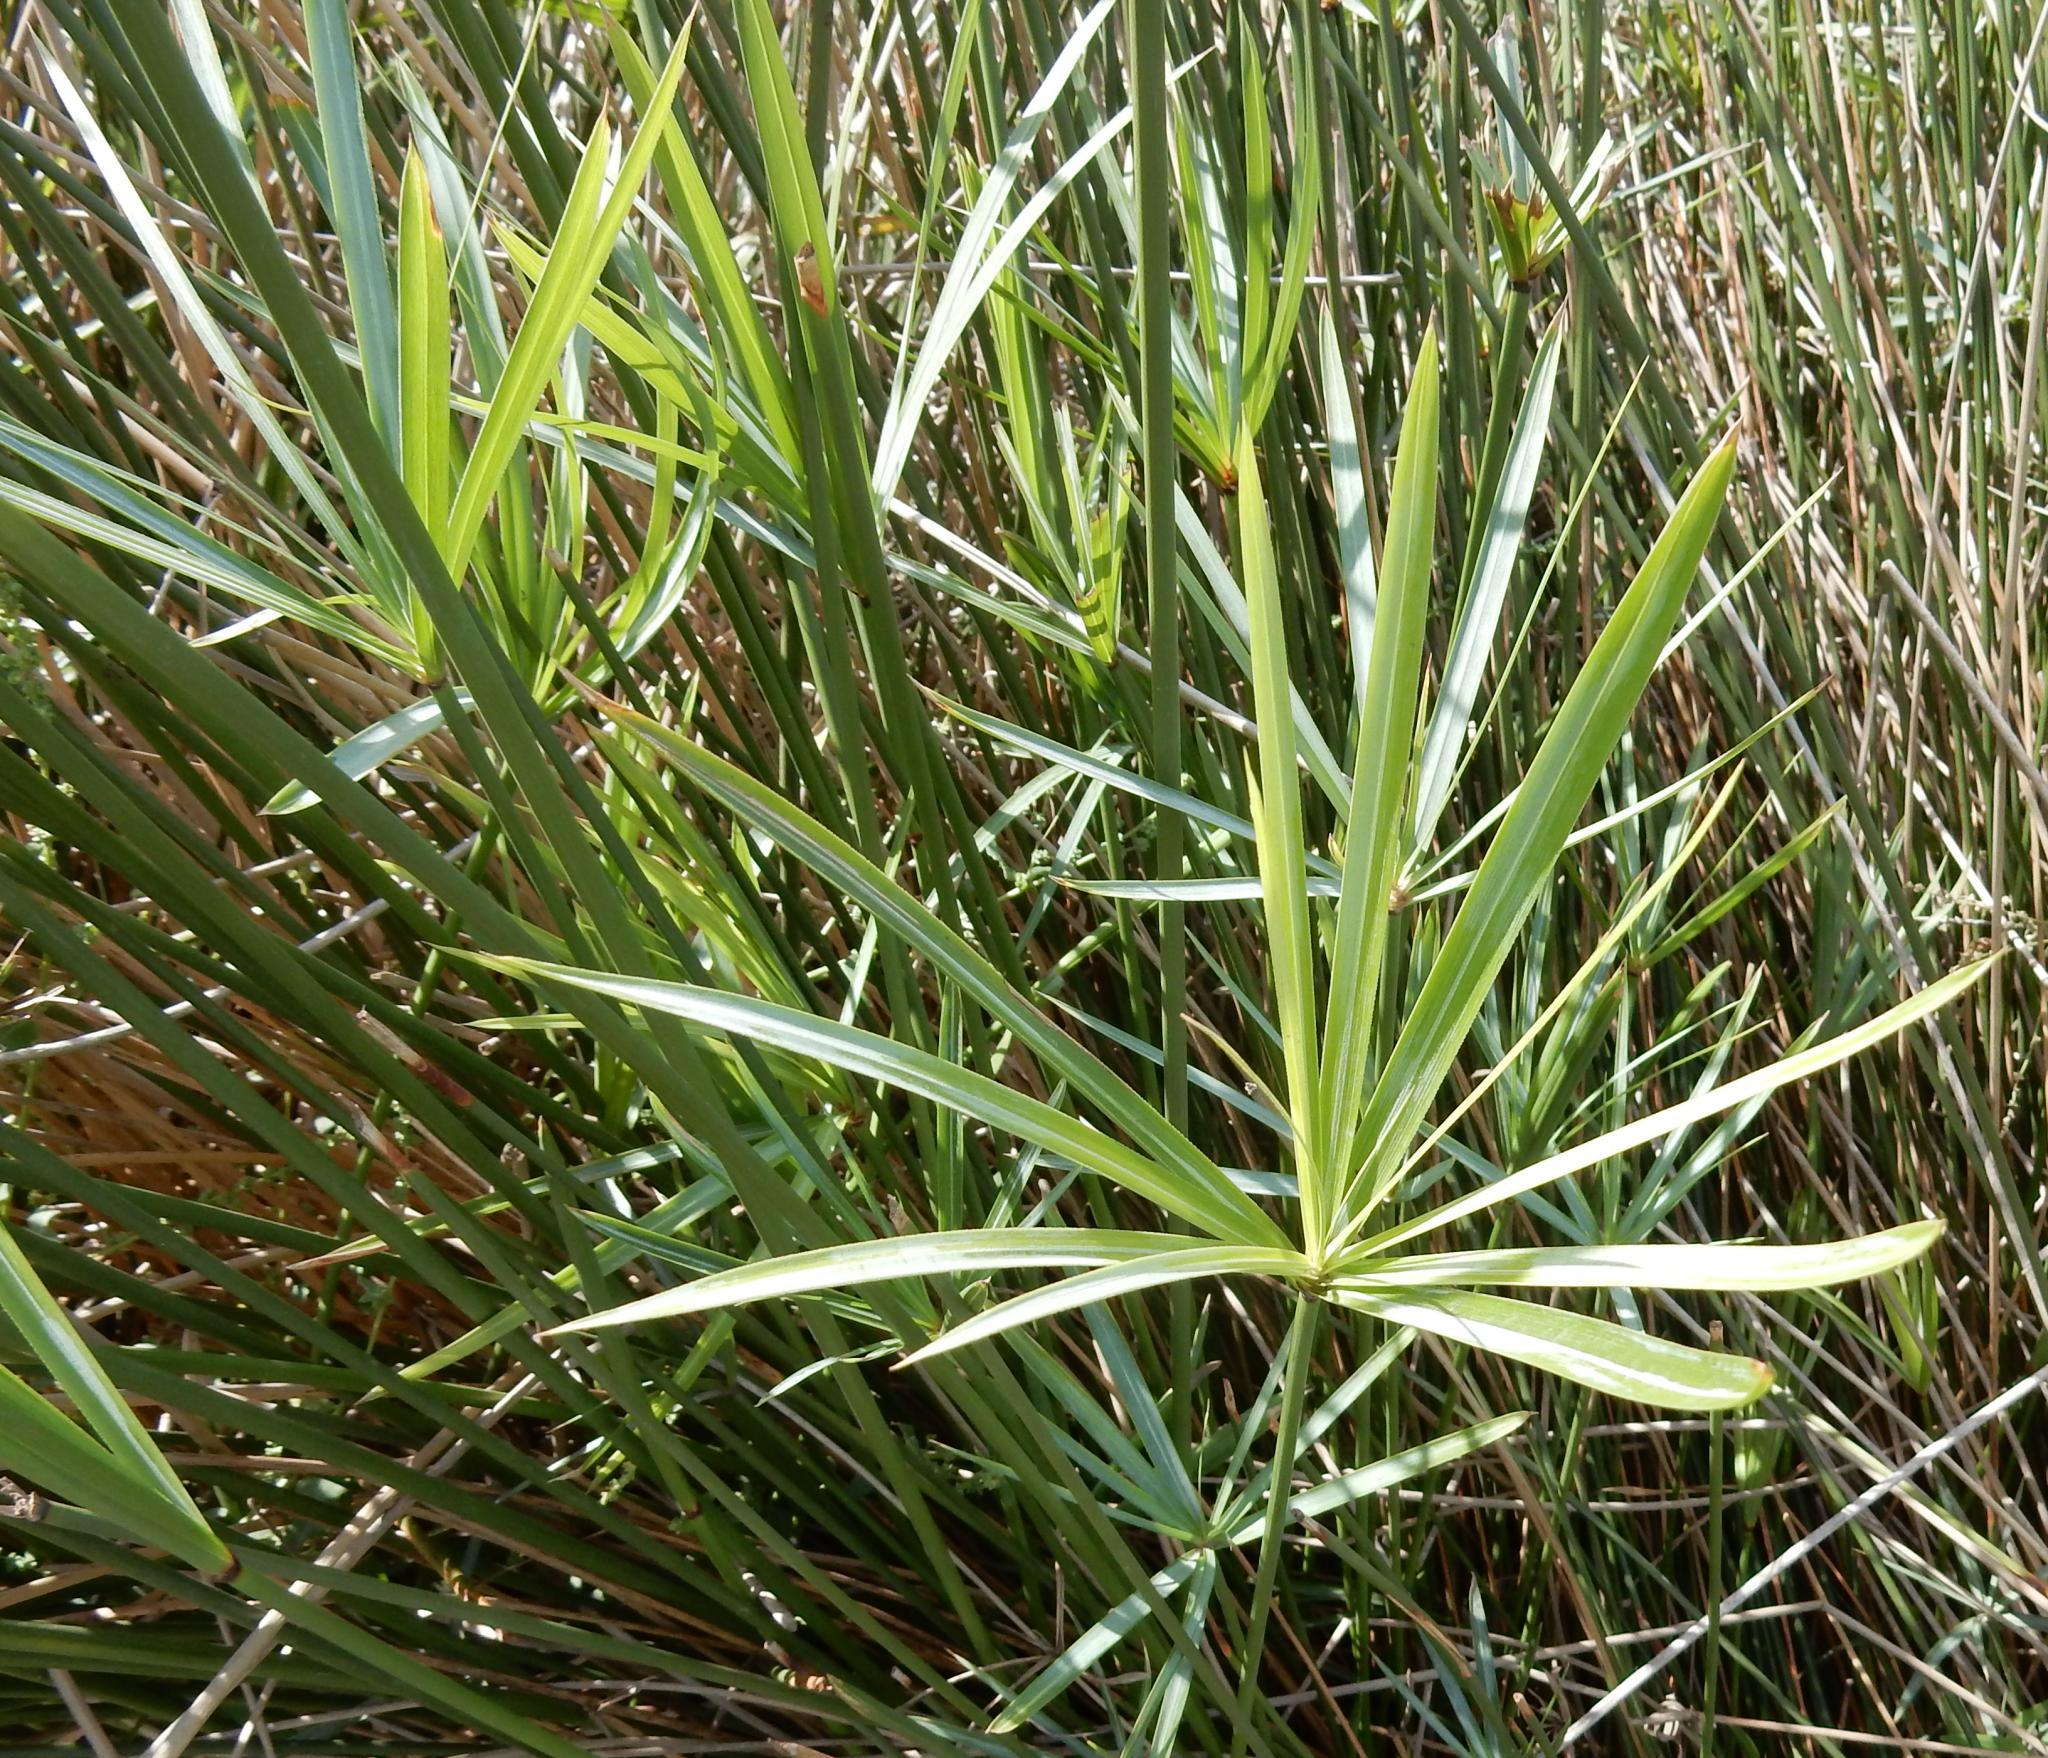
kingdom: Plantae
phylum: Tracheophyta
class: Liliopsida
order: Poales
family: Cyperaceae
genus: Cyperus
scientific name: Cyperus textilis
